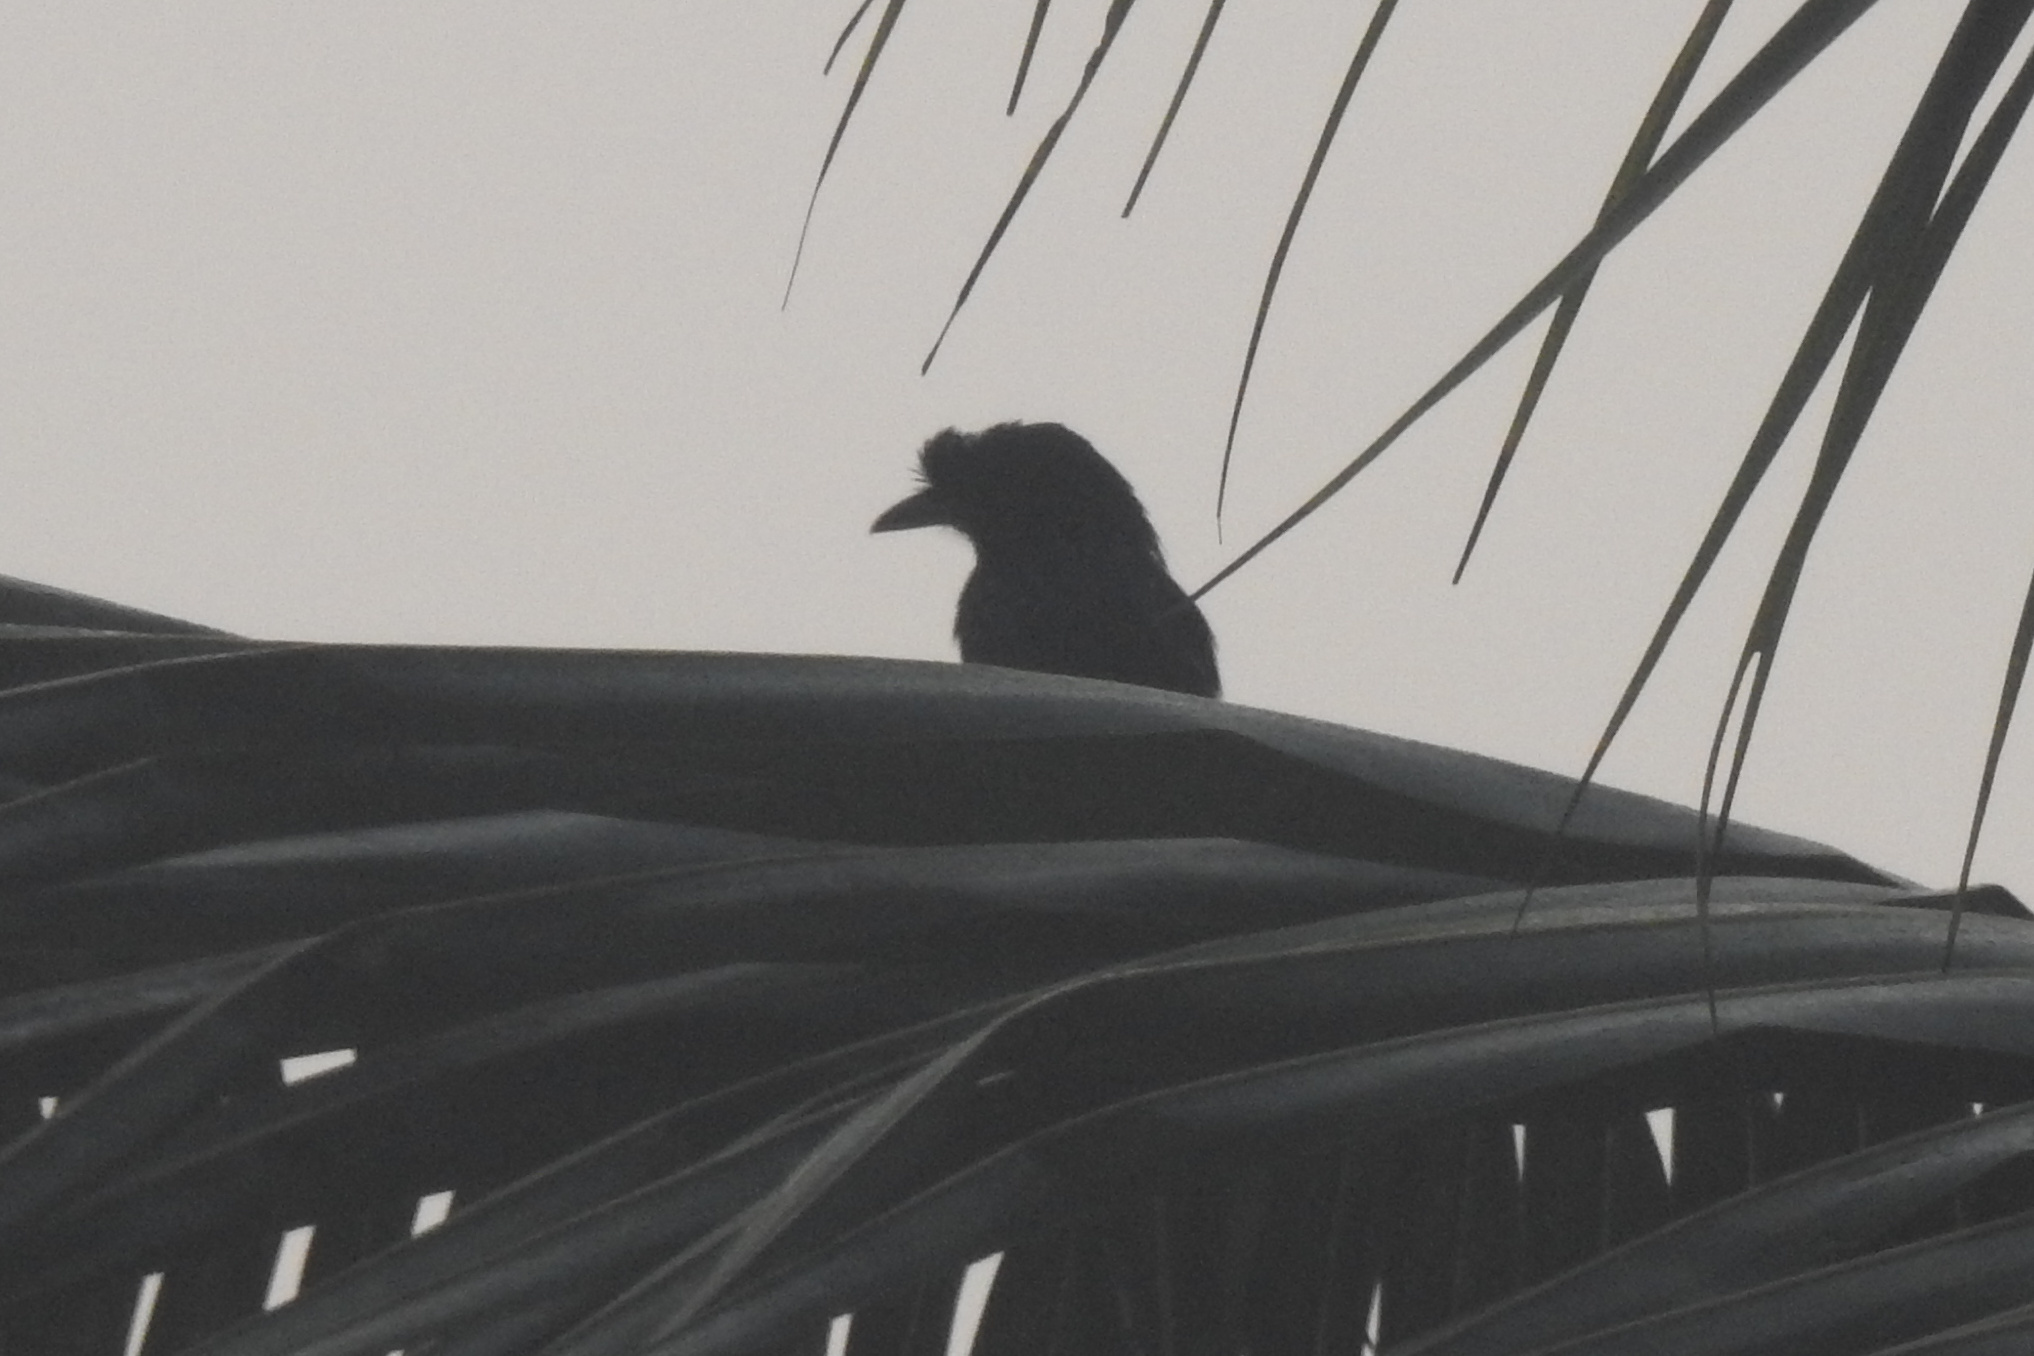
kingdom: Animalia
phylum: Chordata
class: Aves
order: Passeriformes
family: Dicruridae
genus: Dicrurus
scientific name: Dicrurus paradiseus
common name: Greater racket-tailed drongo
